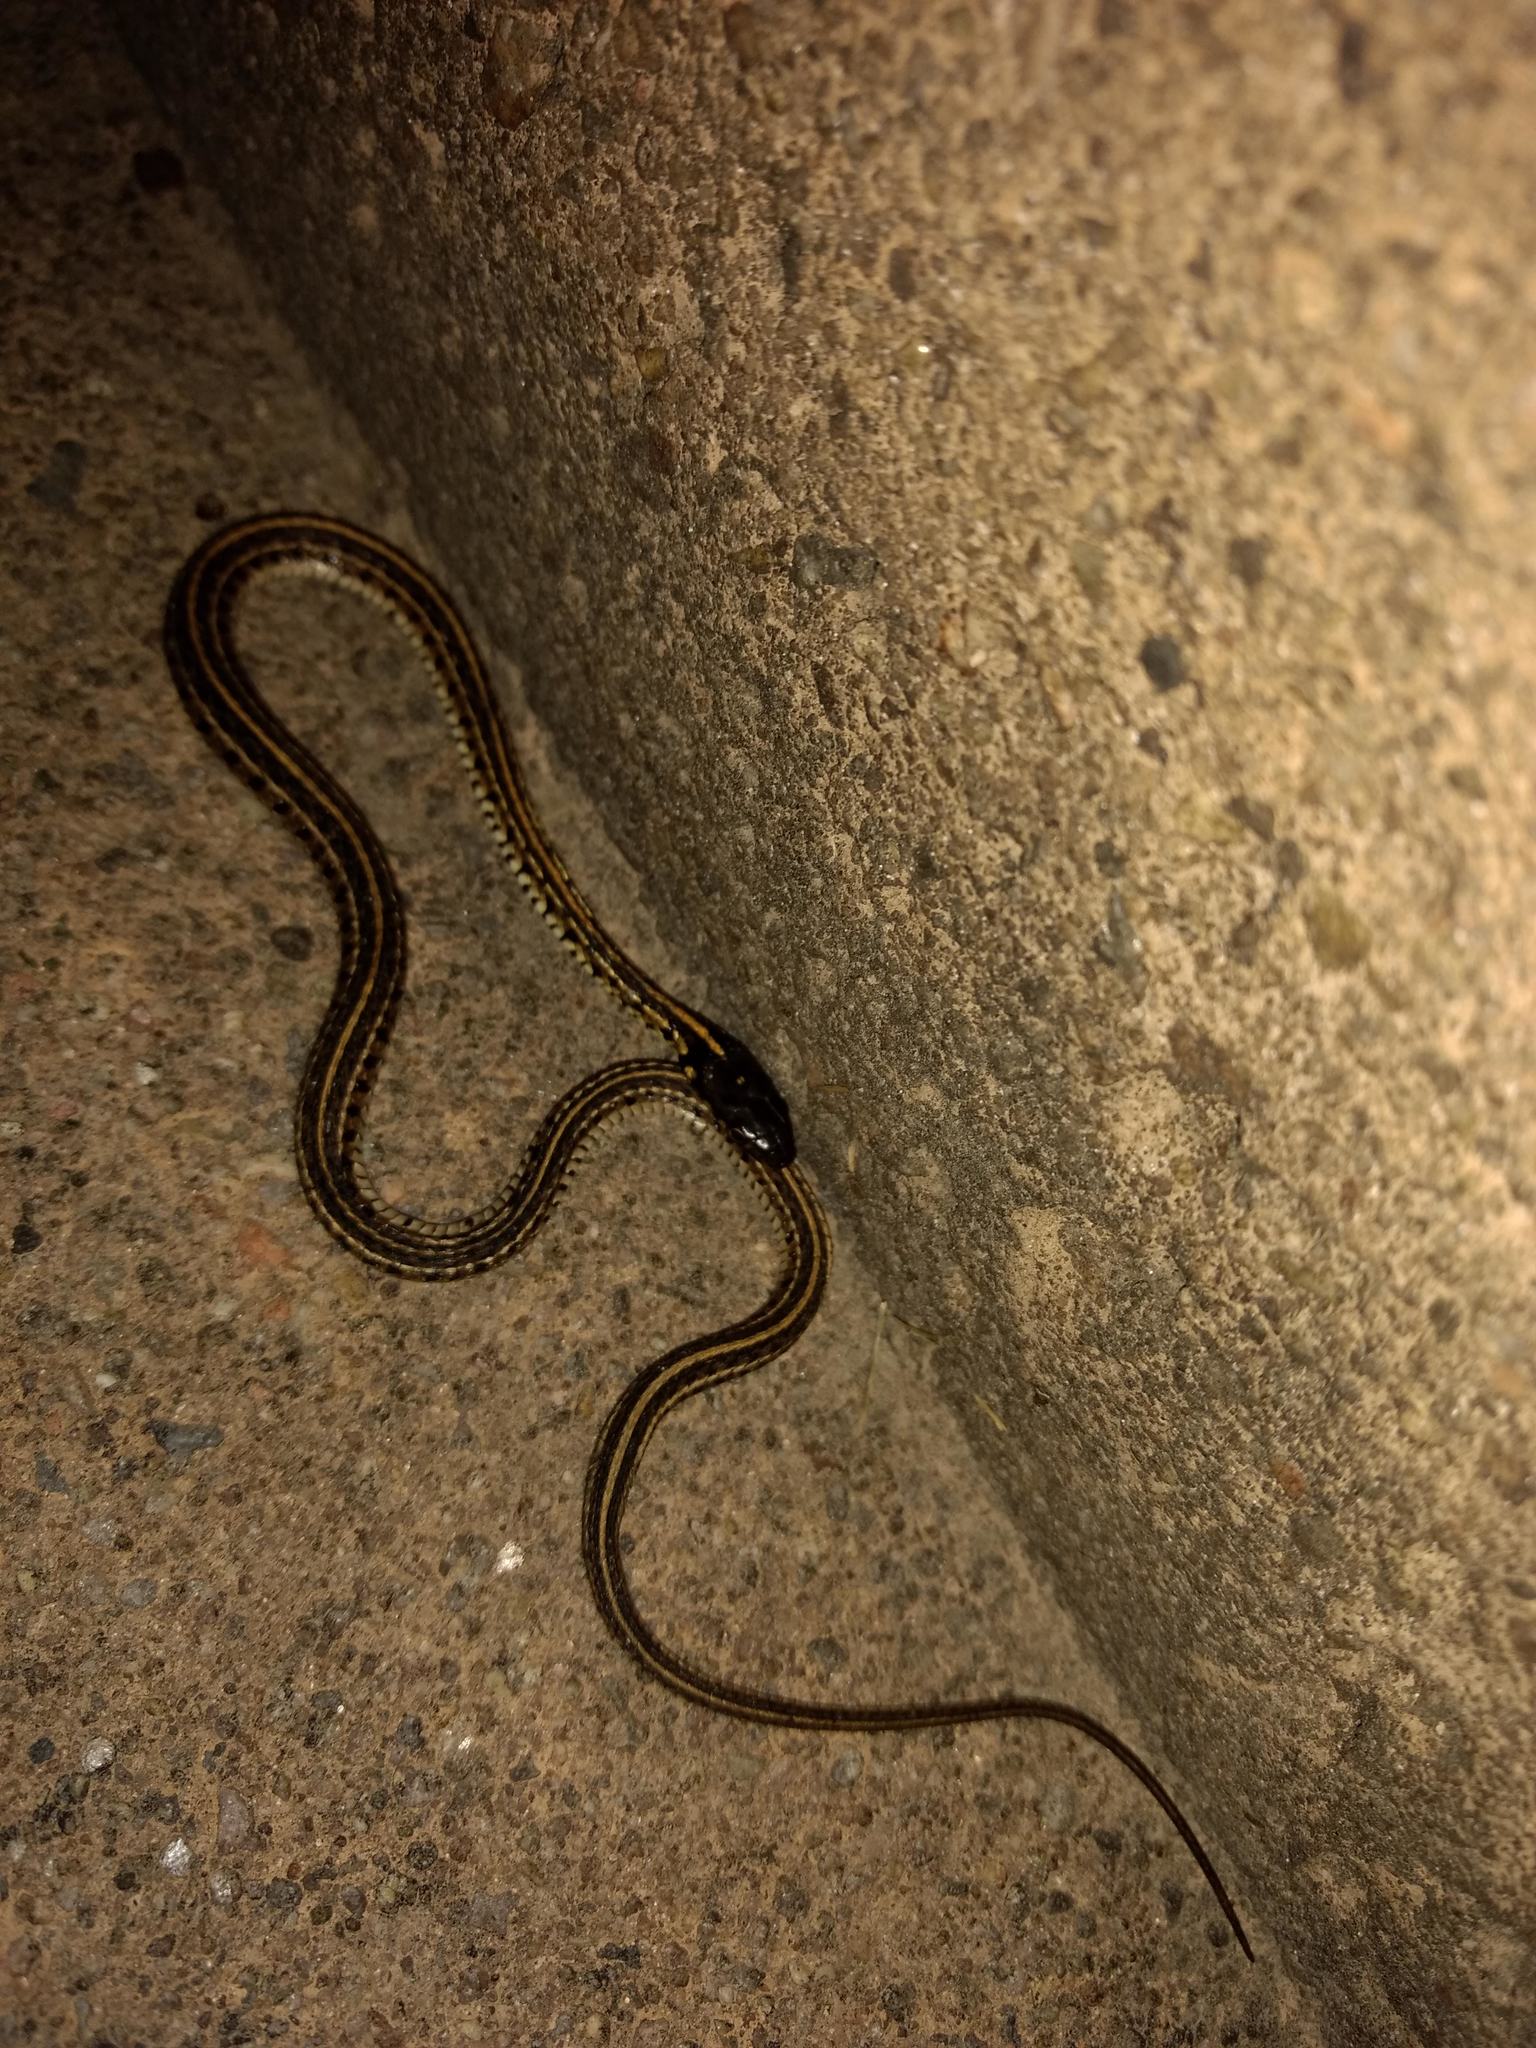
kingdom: Animalia
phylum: Chordata
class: Squamata
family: Colubridae
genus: Thamnophis
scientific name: Thamnophis radix
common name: Plains garter snake
